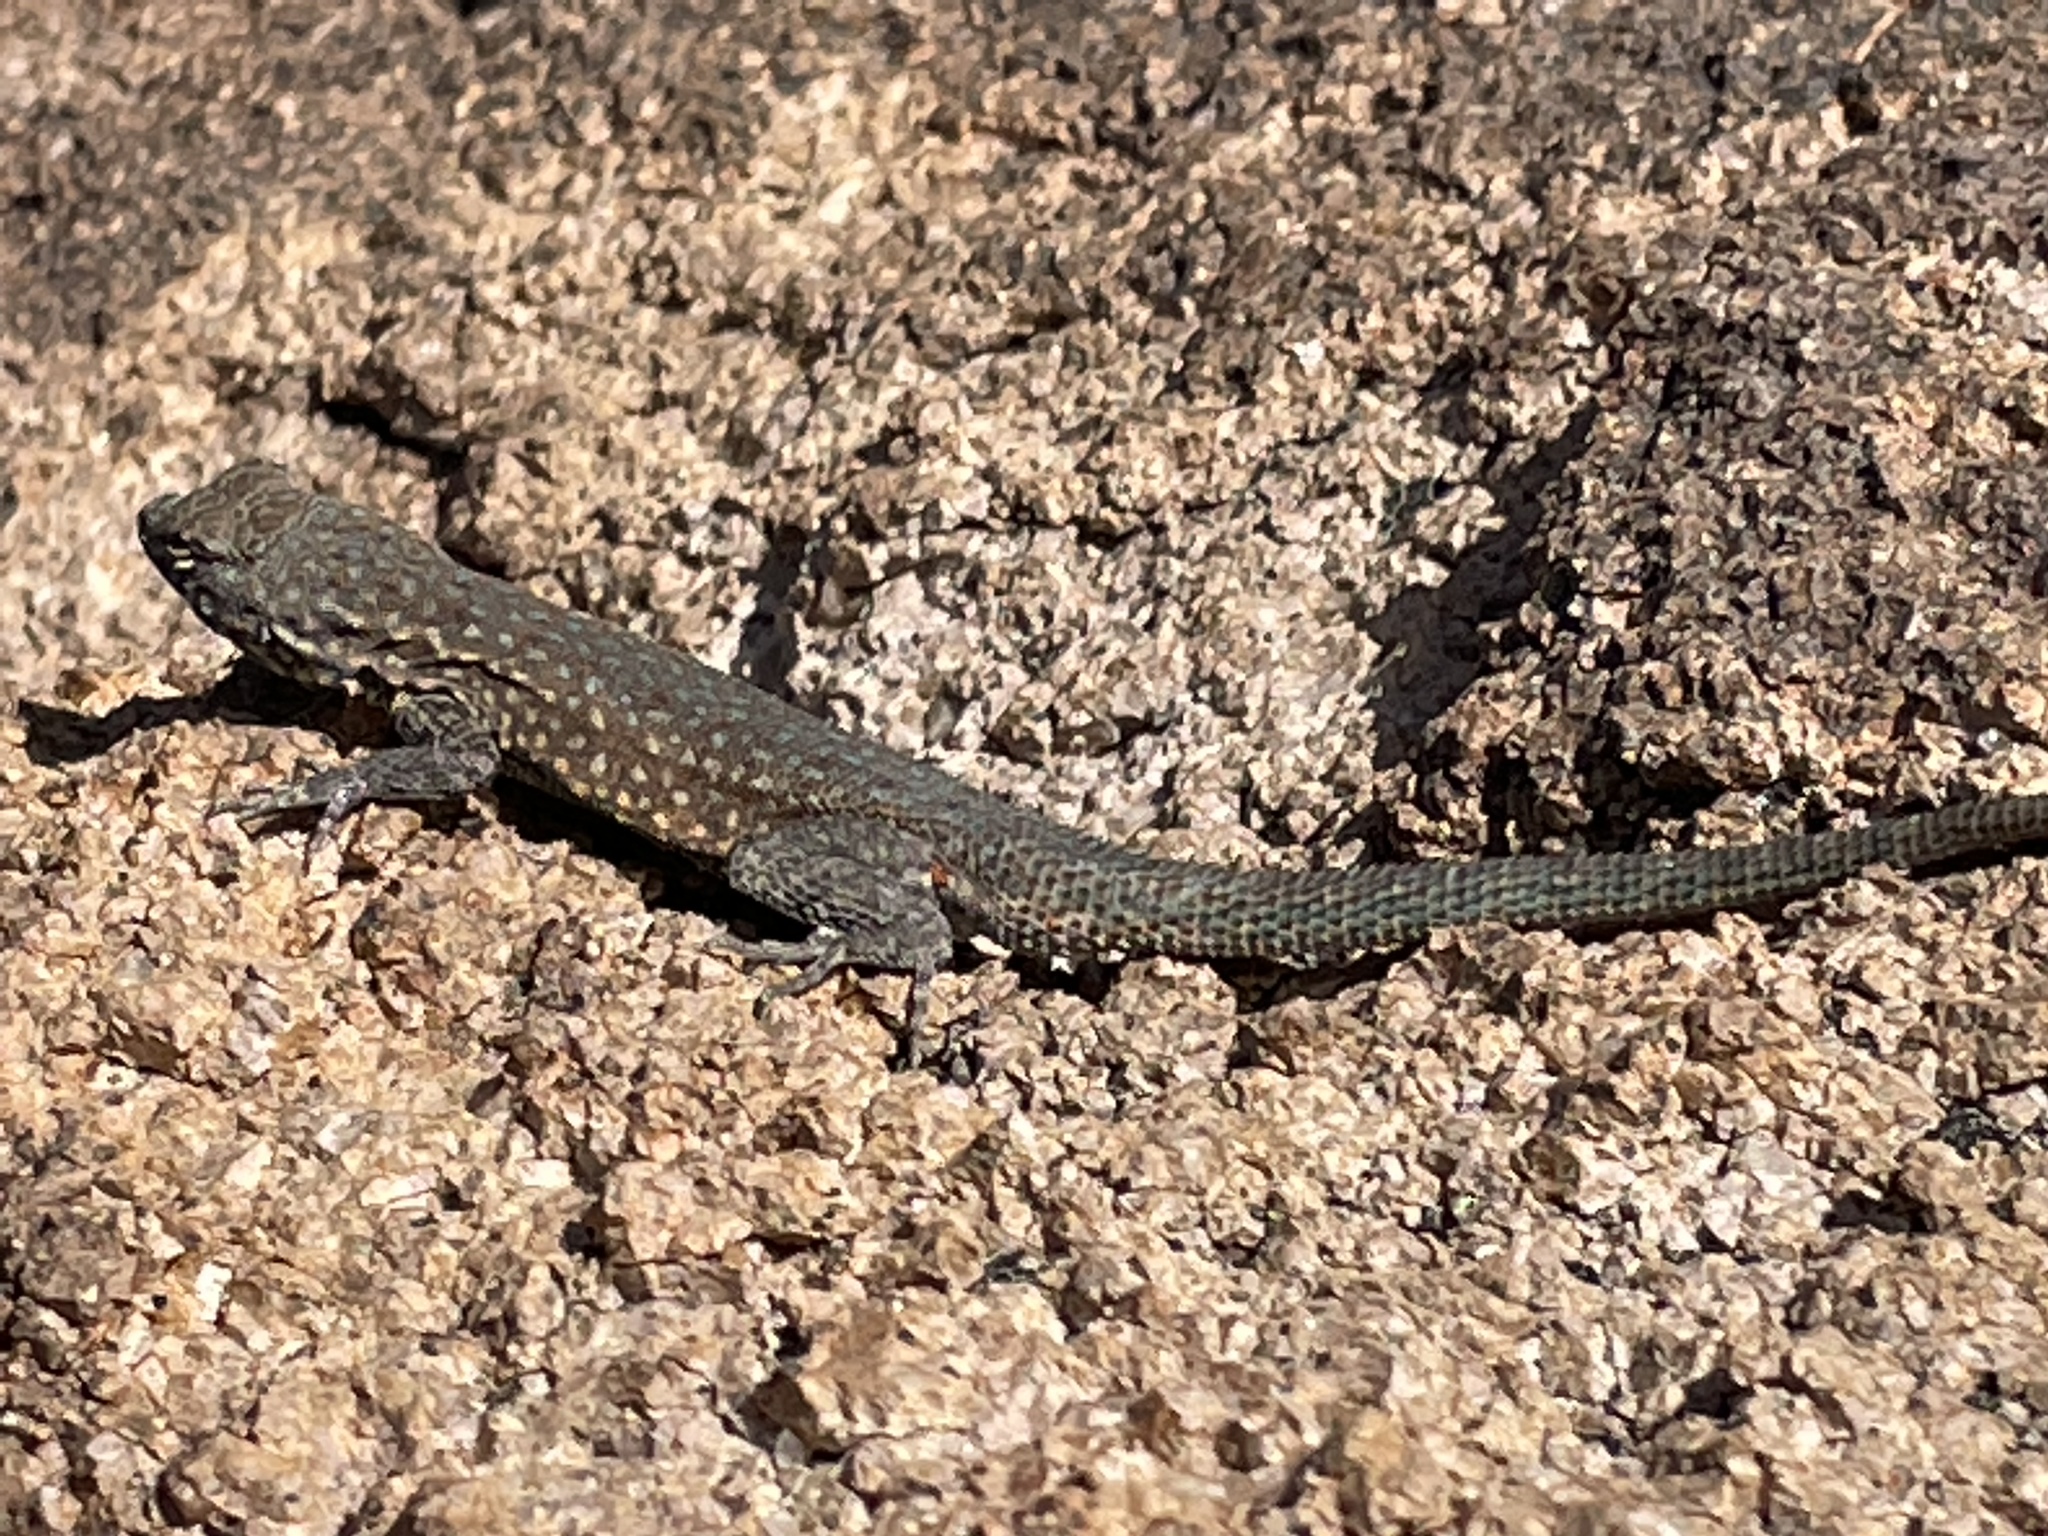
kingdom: Animalia
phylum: Chordata
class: Squamata
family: Phrynosomatidae
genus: Uta
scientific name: Uta stansburiana
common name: Side-blotched lizard
